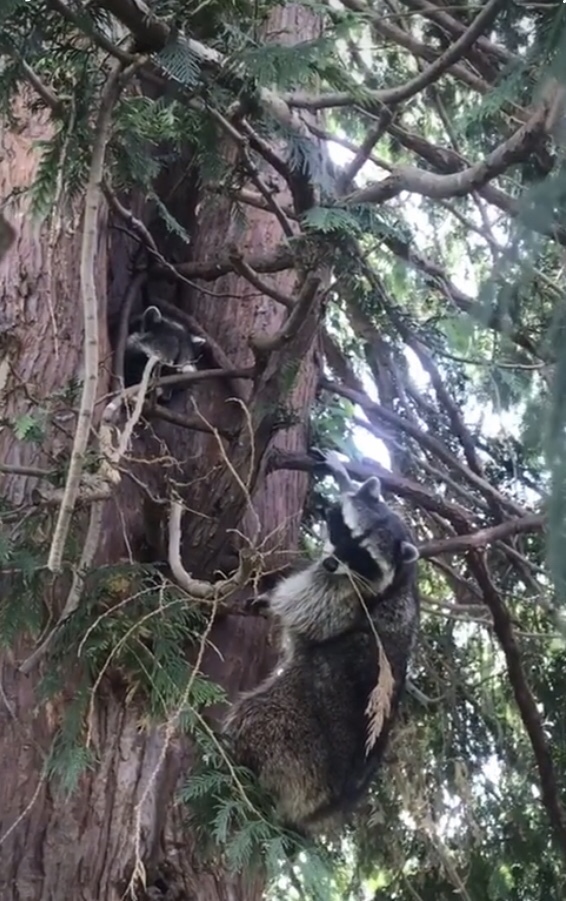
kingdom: Animalia
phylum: Chordata
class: Mammalia
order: Carnivora
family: Procyonidae
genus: Procyon
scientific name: Procyon lotor
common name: Raccoon
